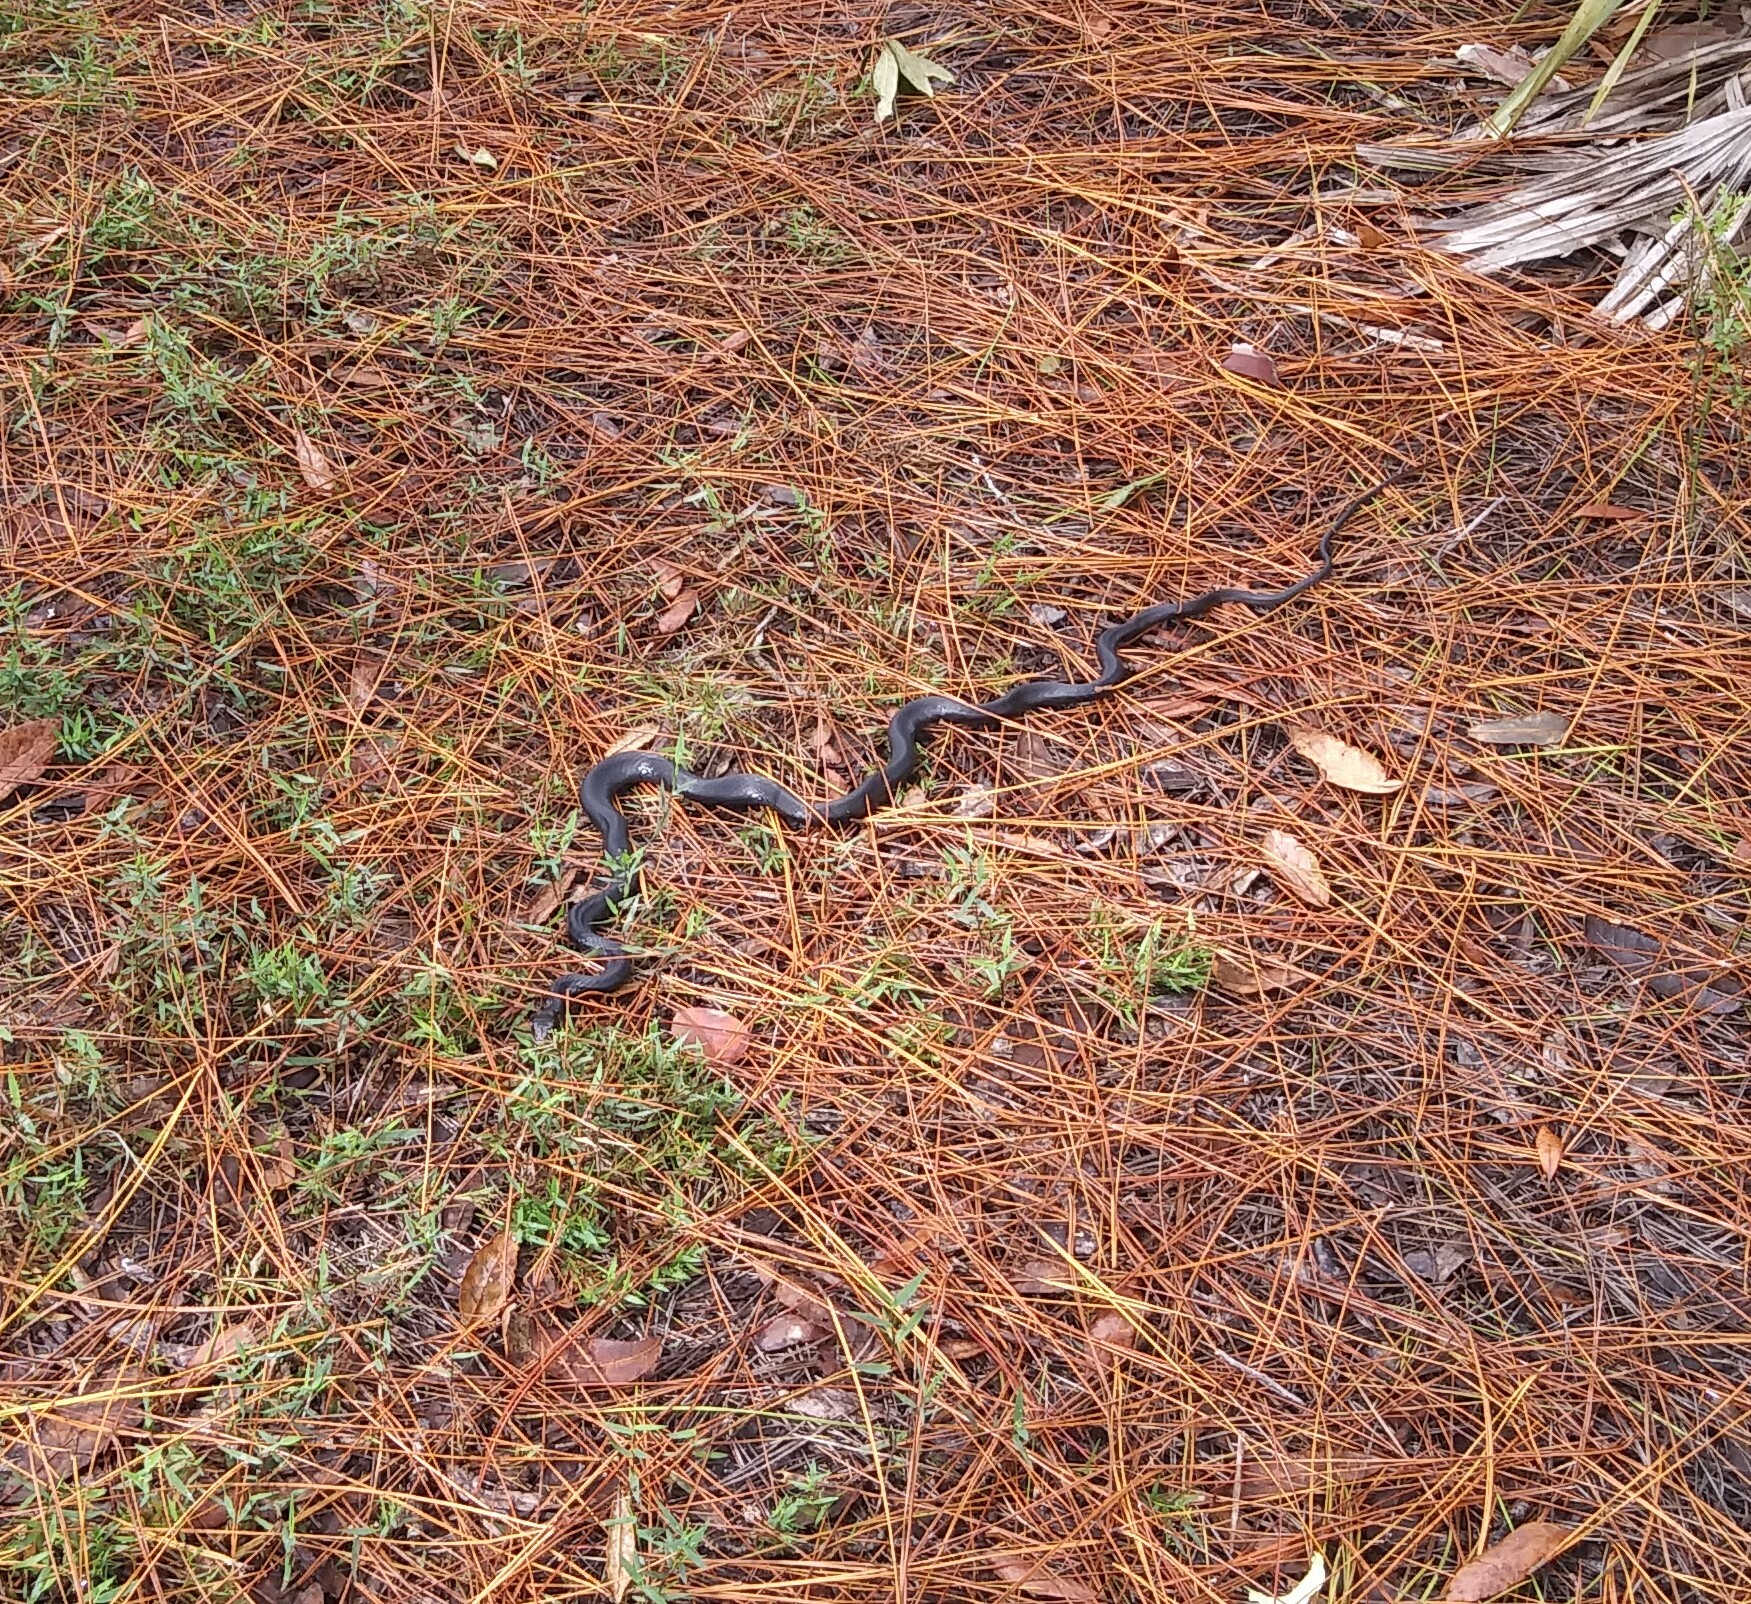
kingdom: Animalia
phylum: Chordata
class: Squamata
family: Colubridae
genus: Coluber
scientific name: Coluber constrictor
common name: Eastern racer
